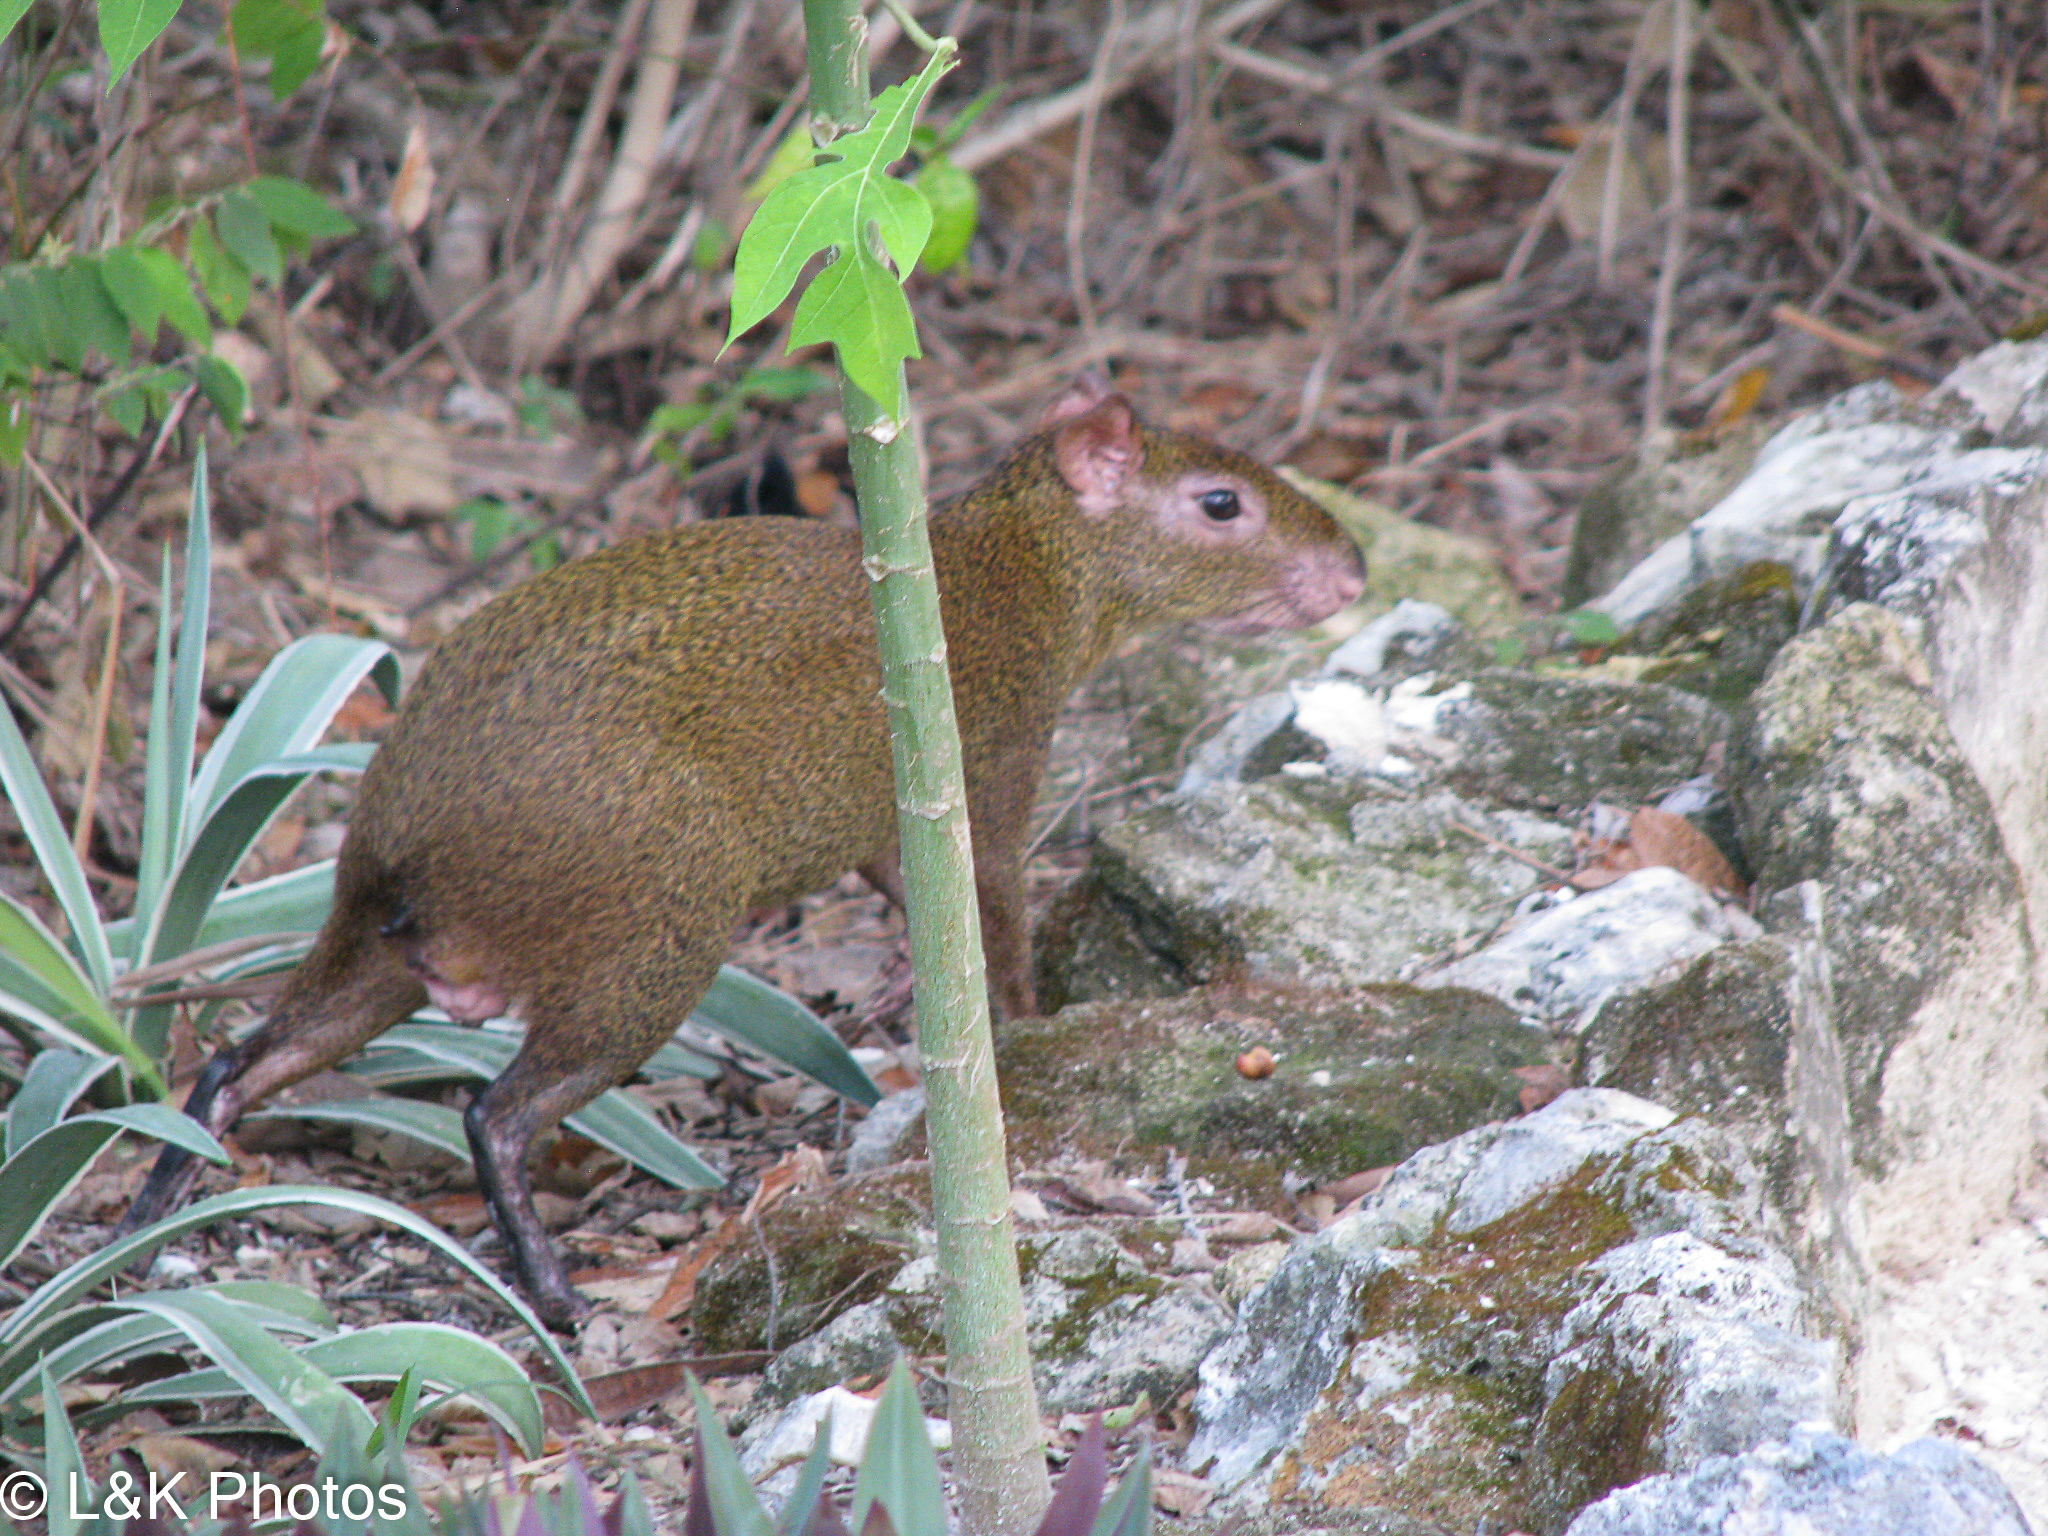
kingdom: Animalia
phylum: Chordata
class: Mammalia
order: Rodentia
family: Dasyproctidae
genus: Dasyprocta
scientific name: Dasyprocta punctata
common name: Central american agouti
